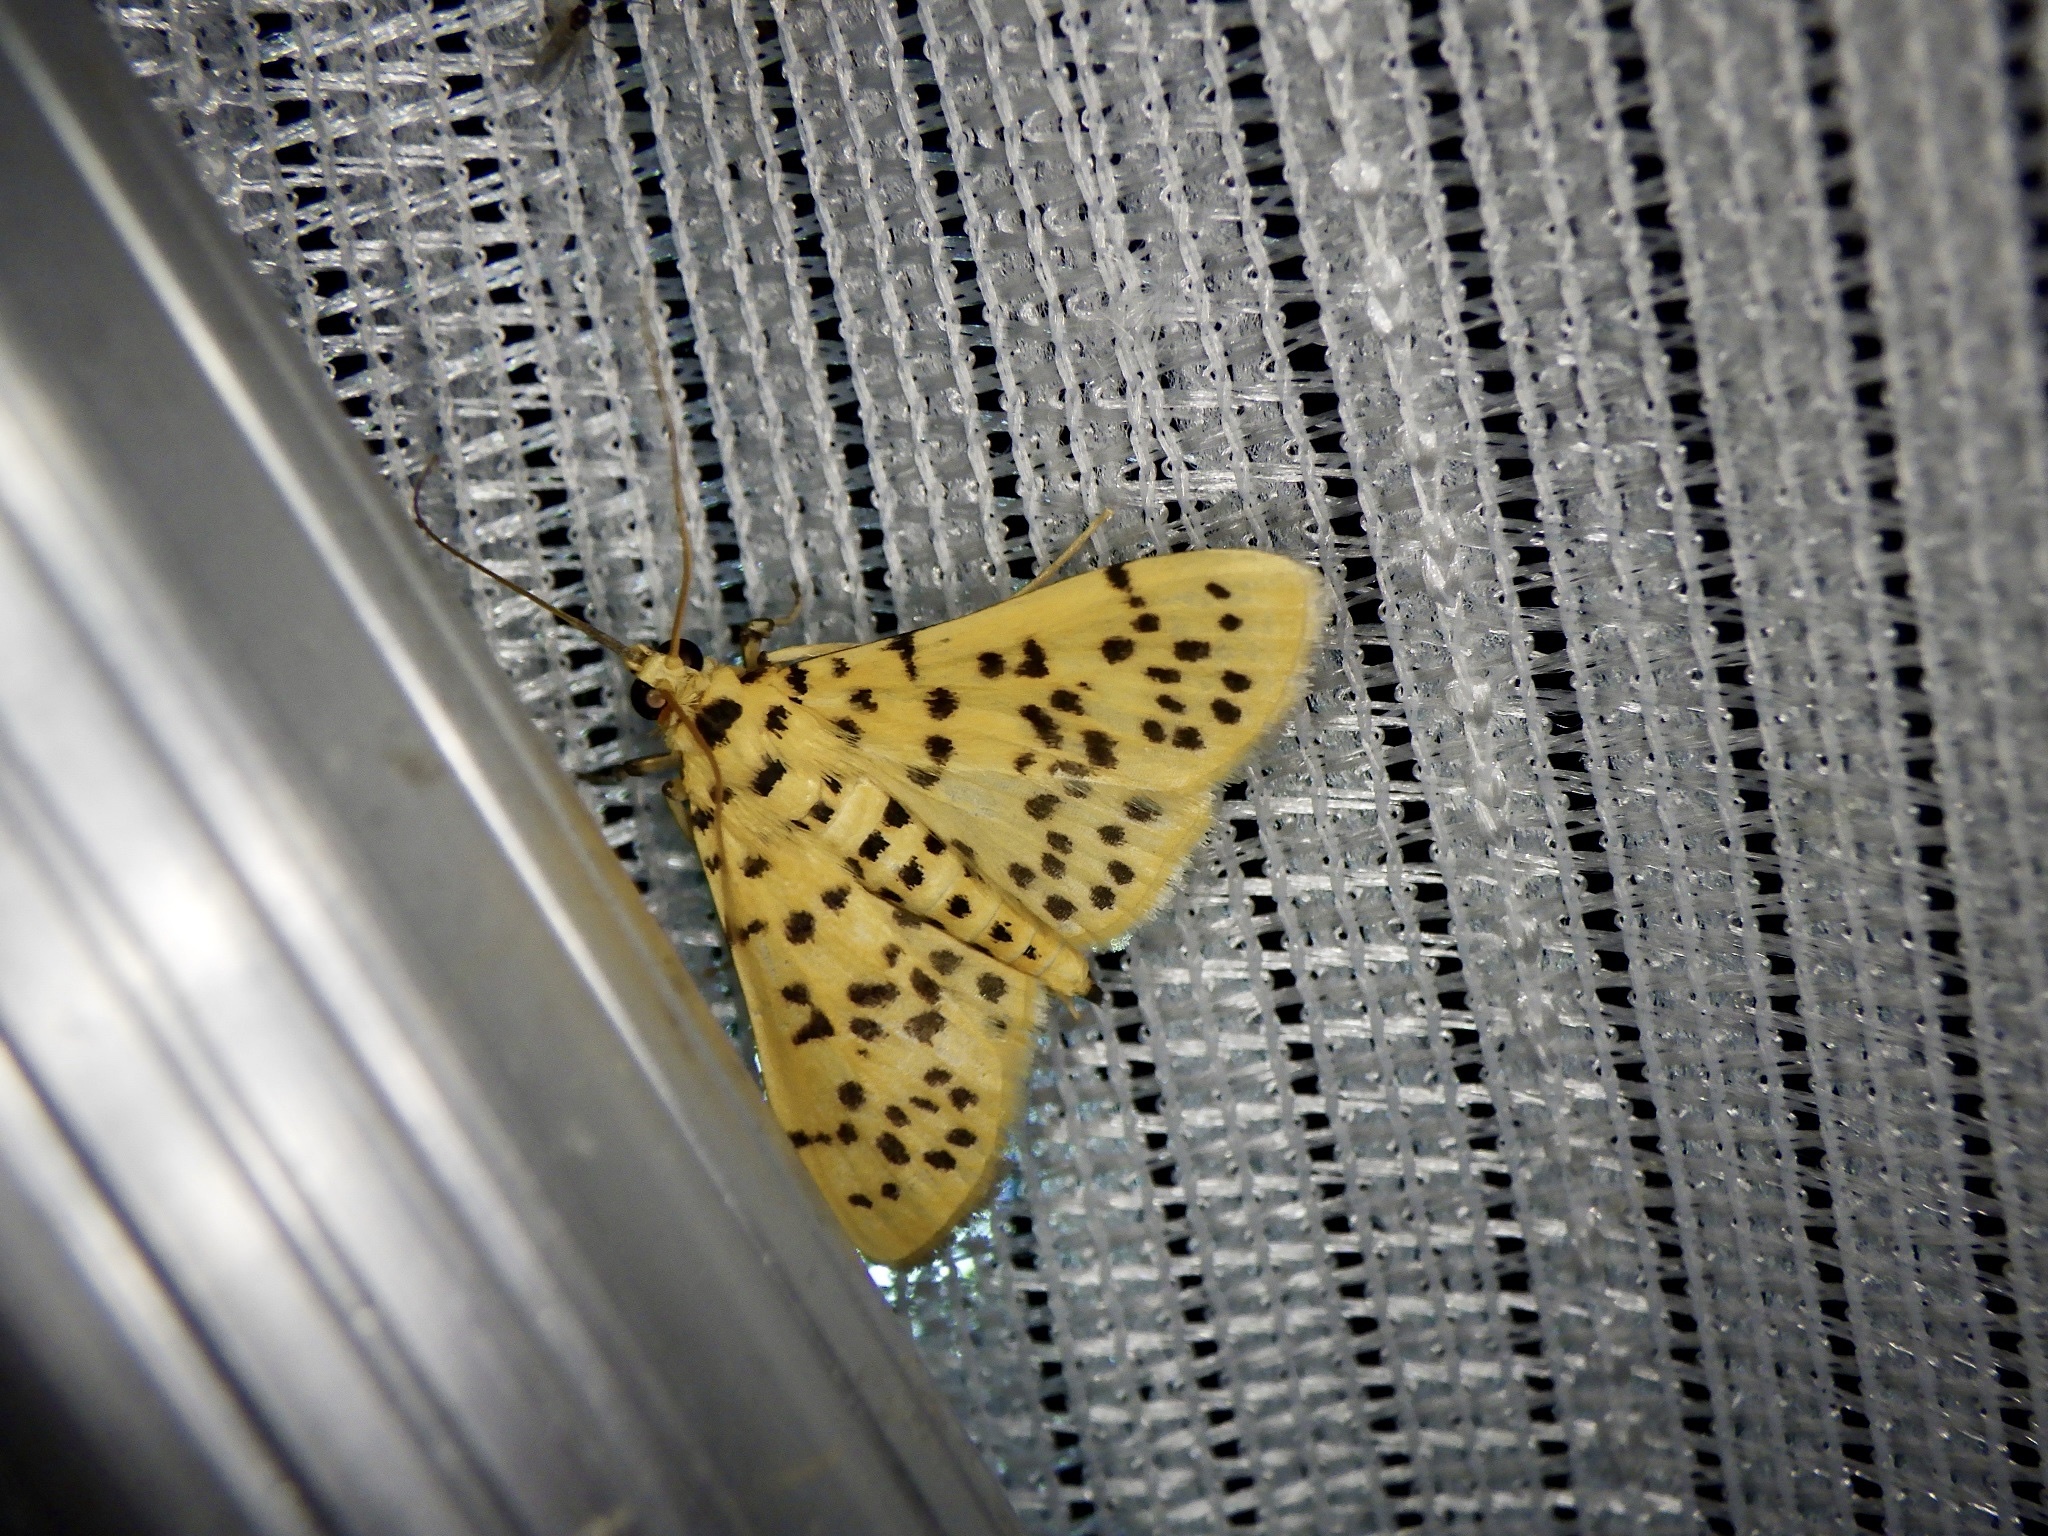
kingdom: Animalia
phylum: Arthropoda
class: Insecta
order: Lepidoptera
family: Crambidae
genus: Conogethes
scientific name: Conogethes punctiferalis
